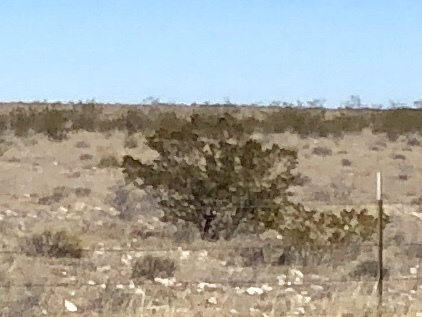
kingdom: Plantae
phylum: Tracheophyta
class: Magnoliopsida
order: Zygophyllales
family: Zygophyllaceae
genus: Larrea
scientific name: Larrea tridentata
